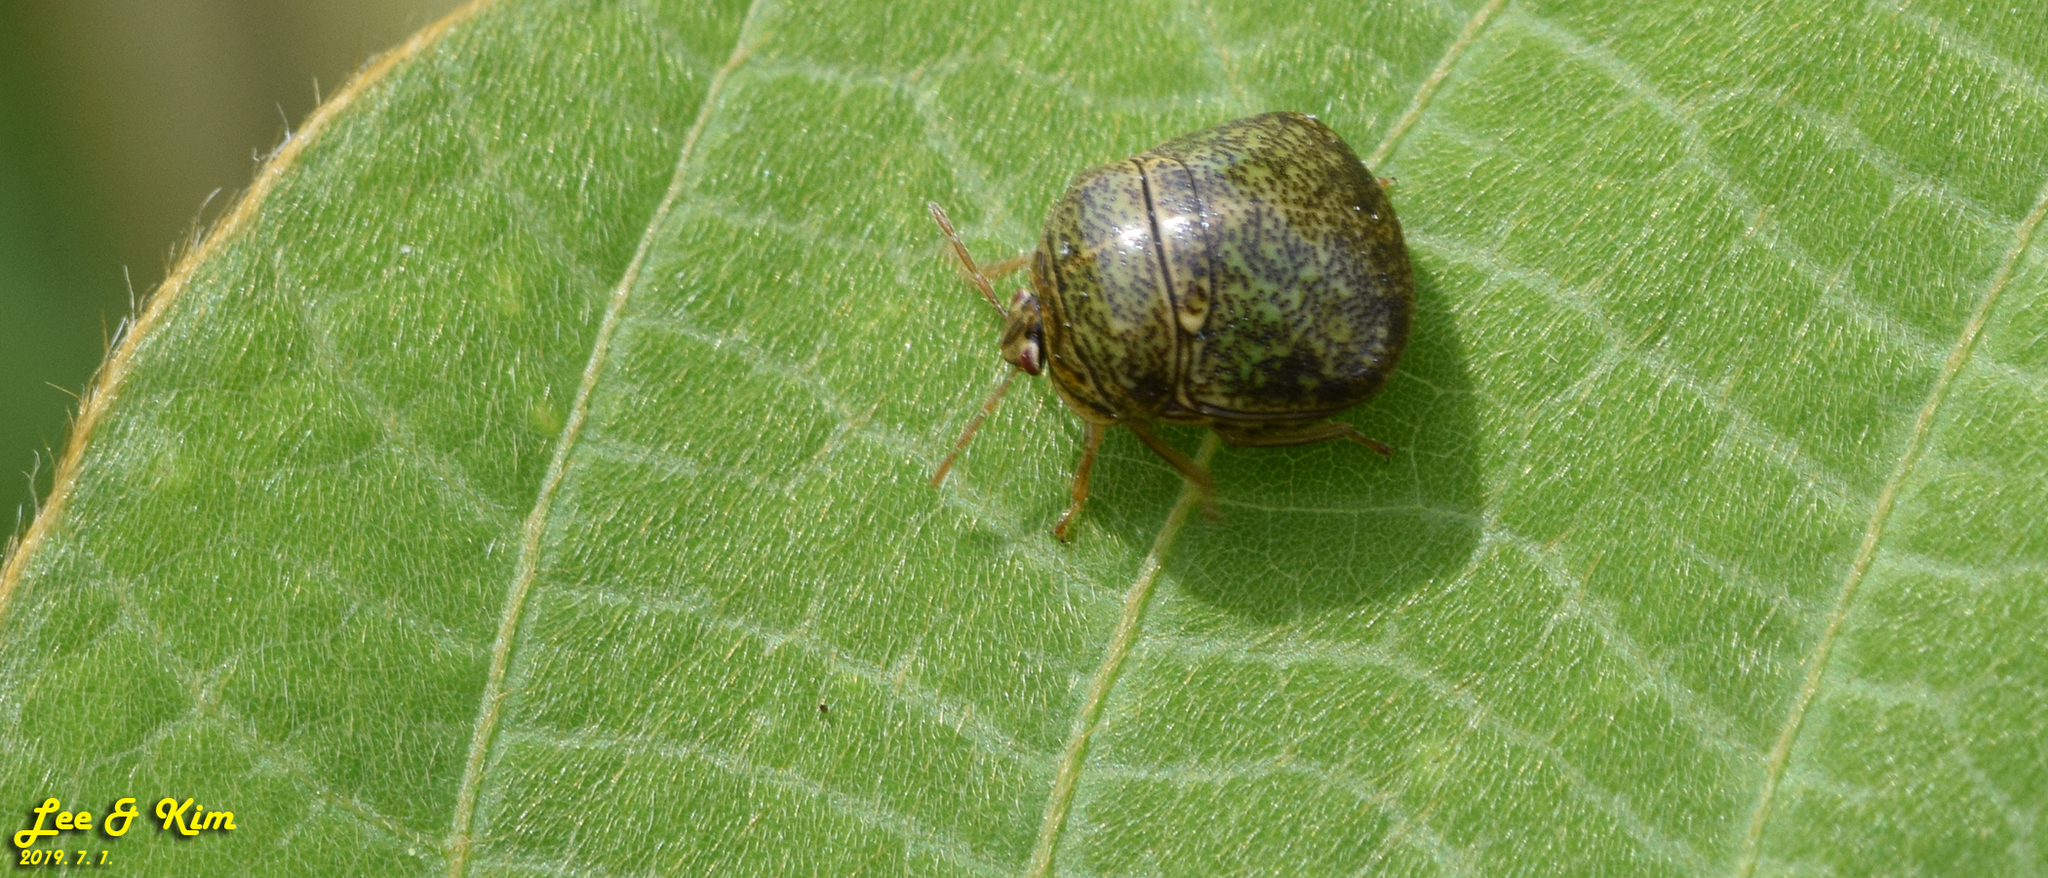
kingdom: Animalia
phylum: Arthropoda
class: Insecta
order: Hemiptera
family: Plataspidae
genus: Megacopta
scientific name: Megacopta cribraria
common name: Bean plataspid
